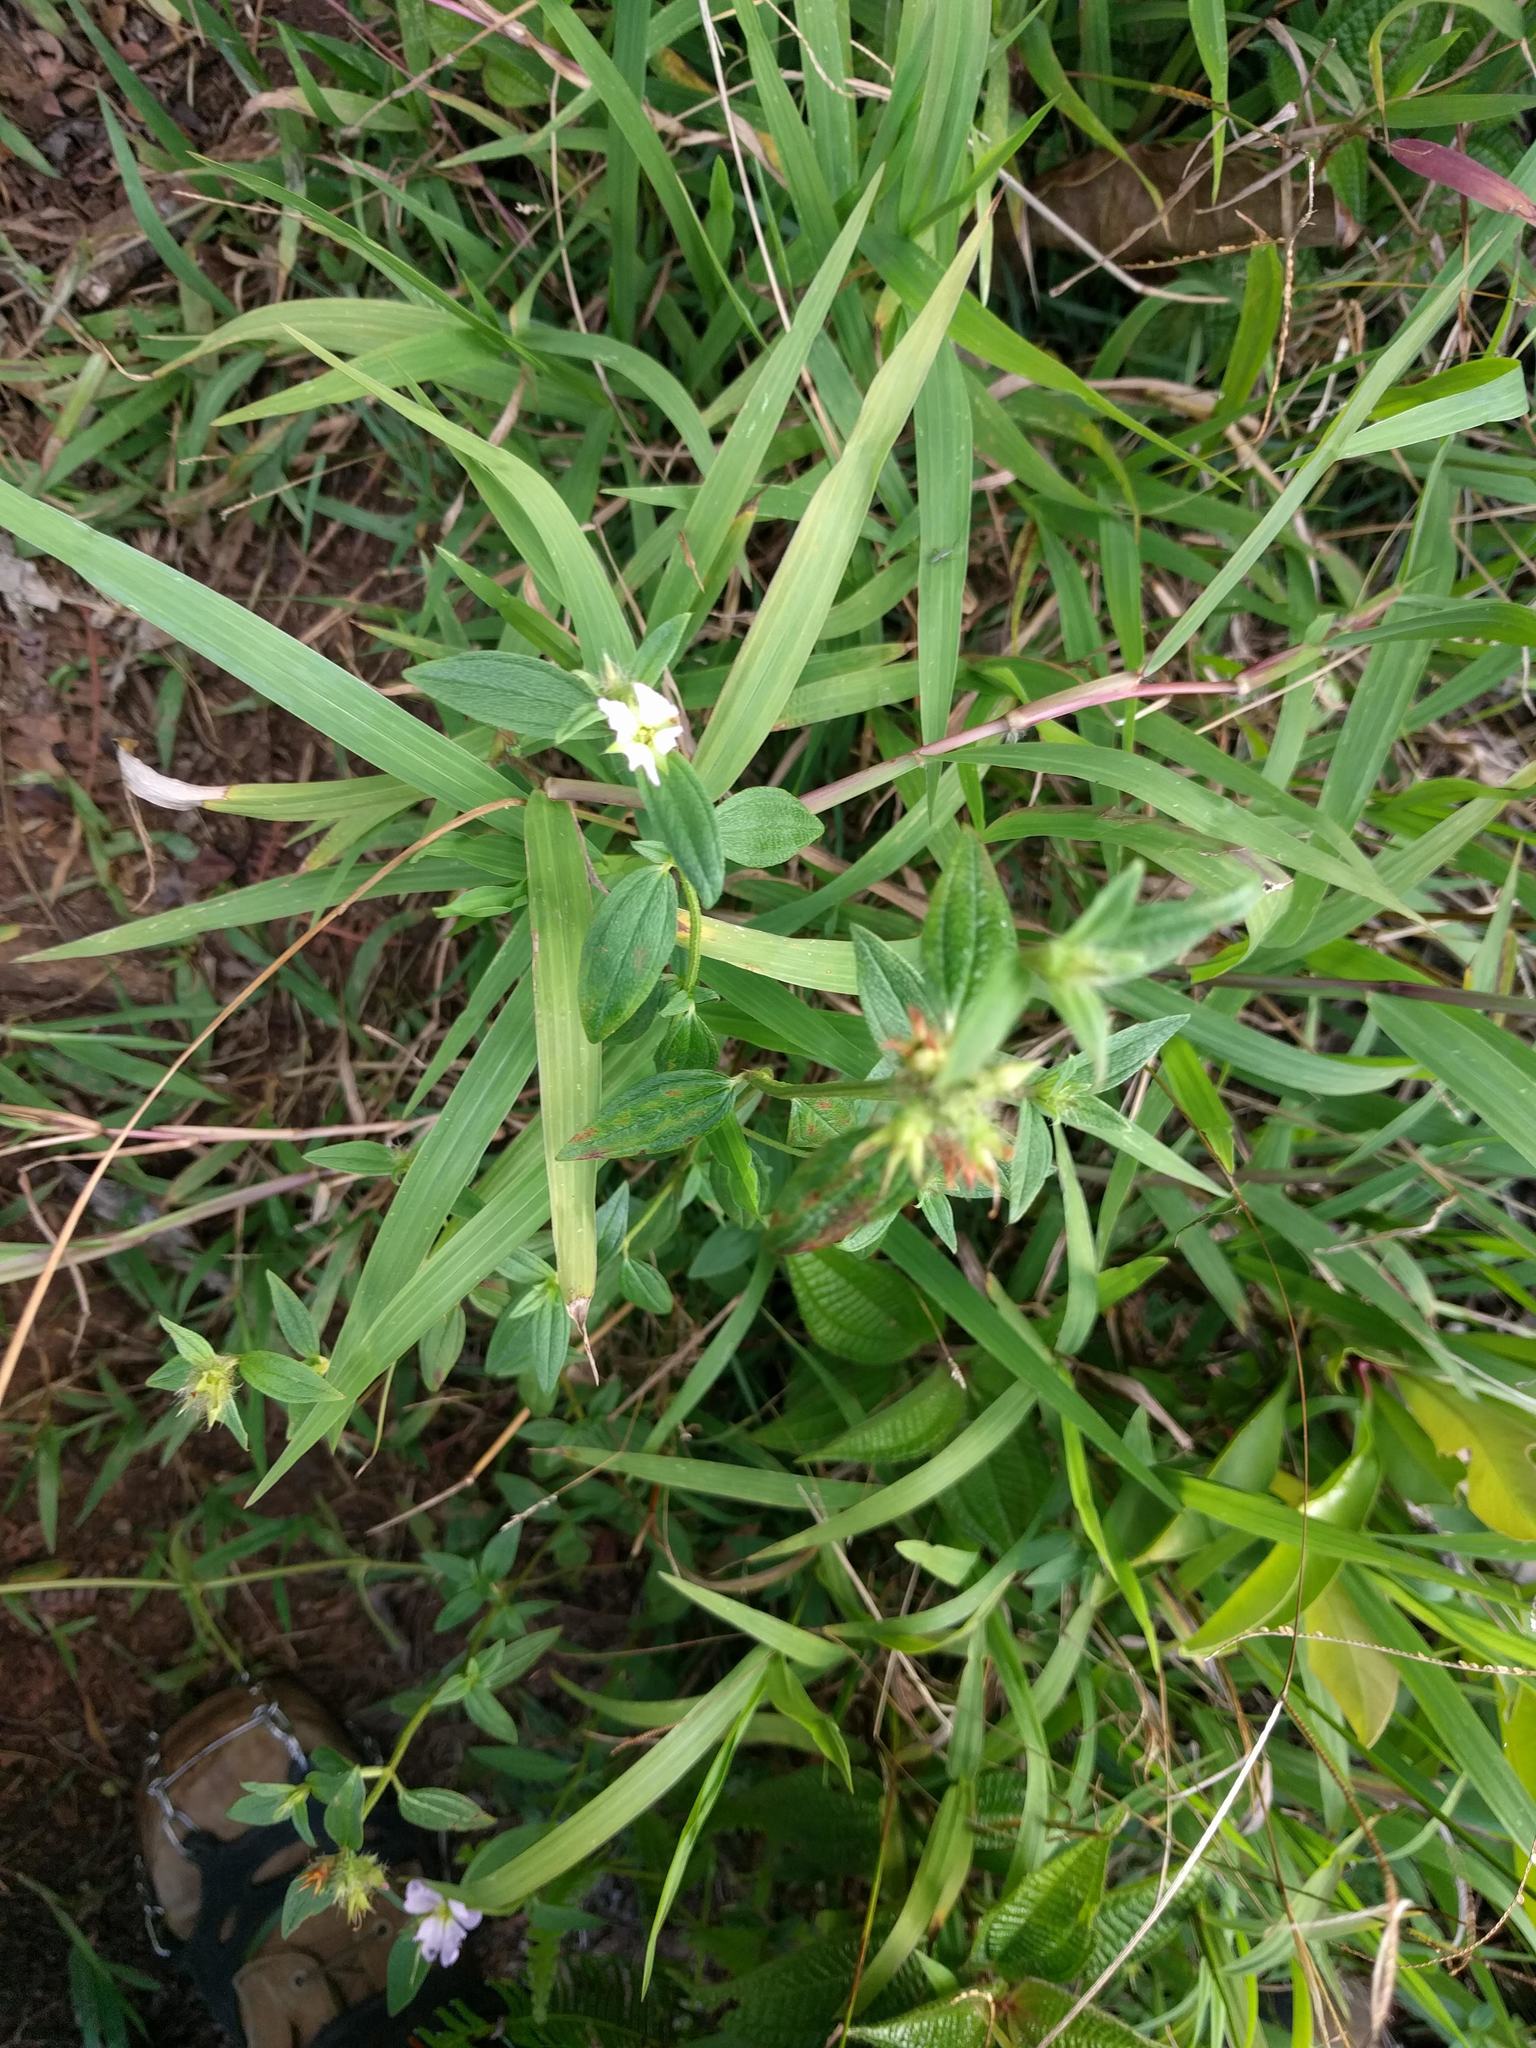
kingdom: Plantae
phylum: Tracheophyta
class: Magnoliopsida
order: Myrtales
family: Melastomataceae
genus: Pterolepis
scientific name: Pterolepis glomerata
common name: False meadowbeauty
